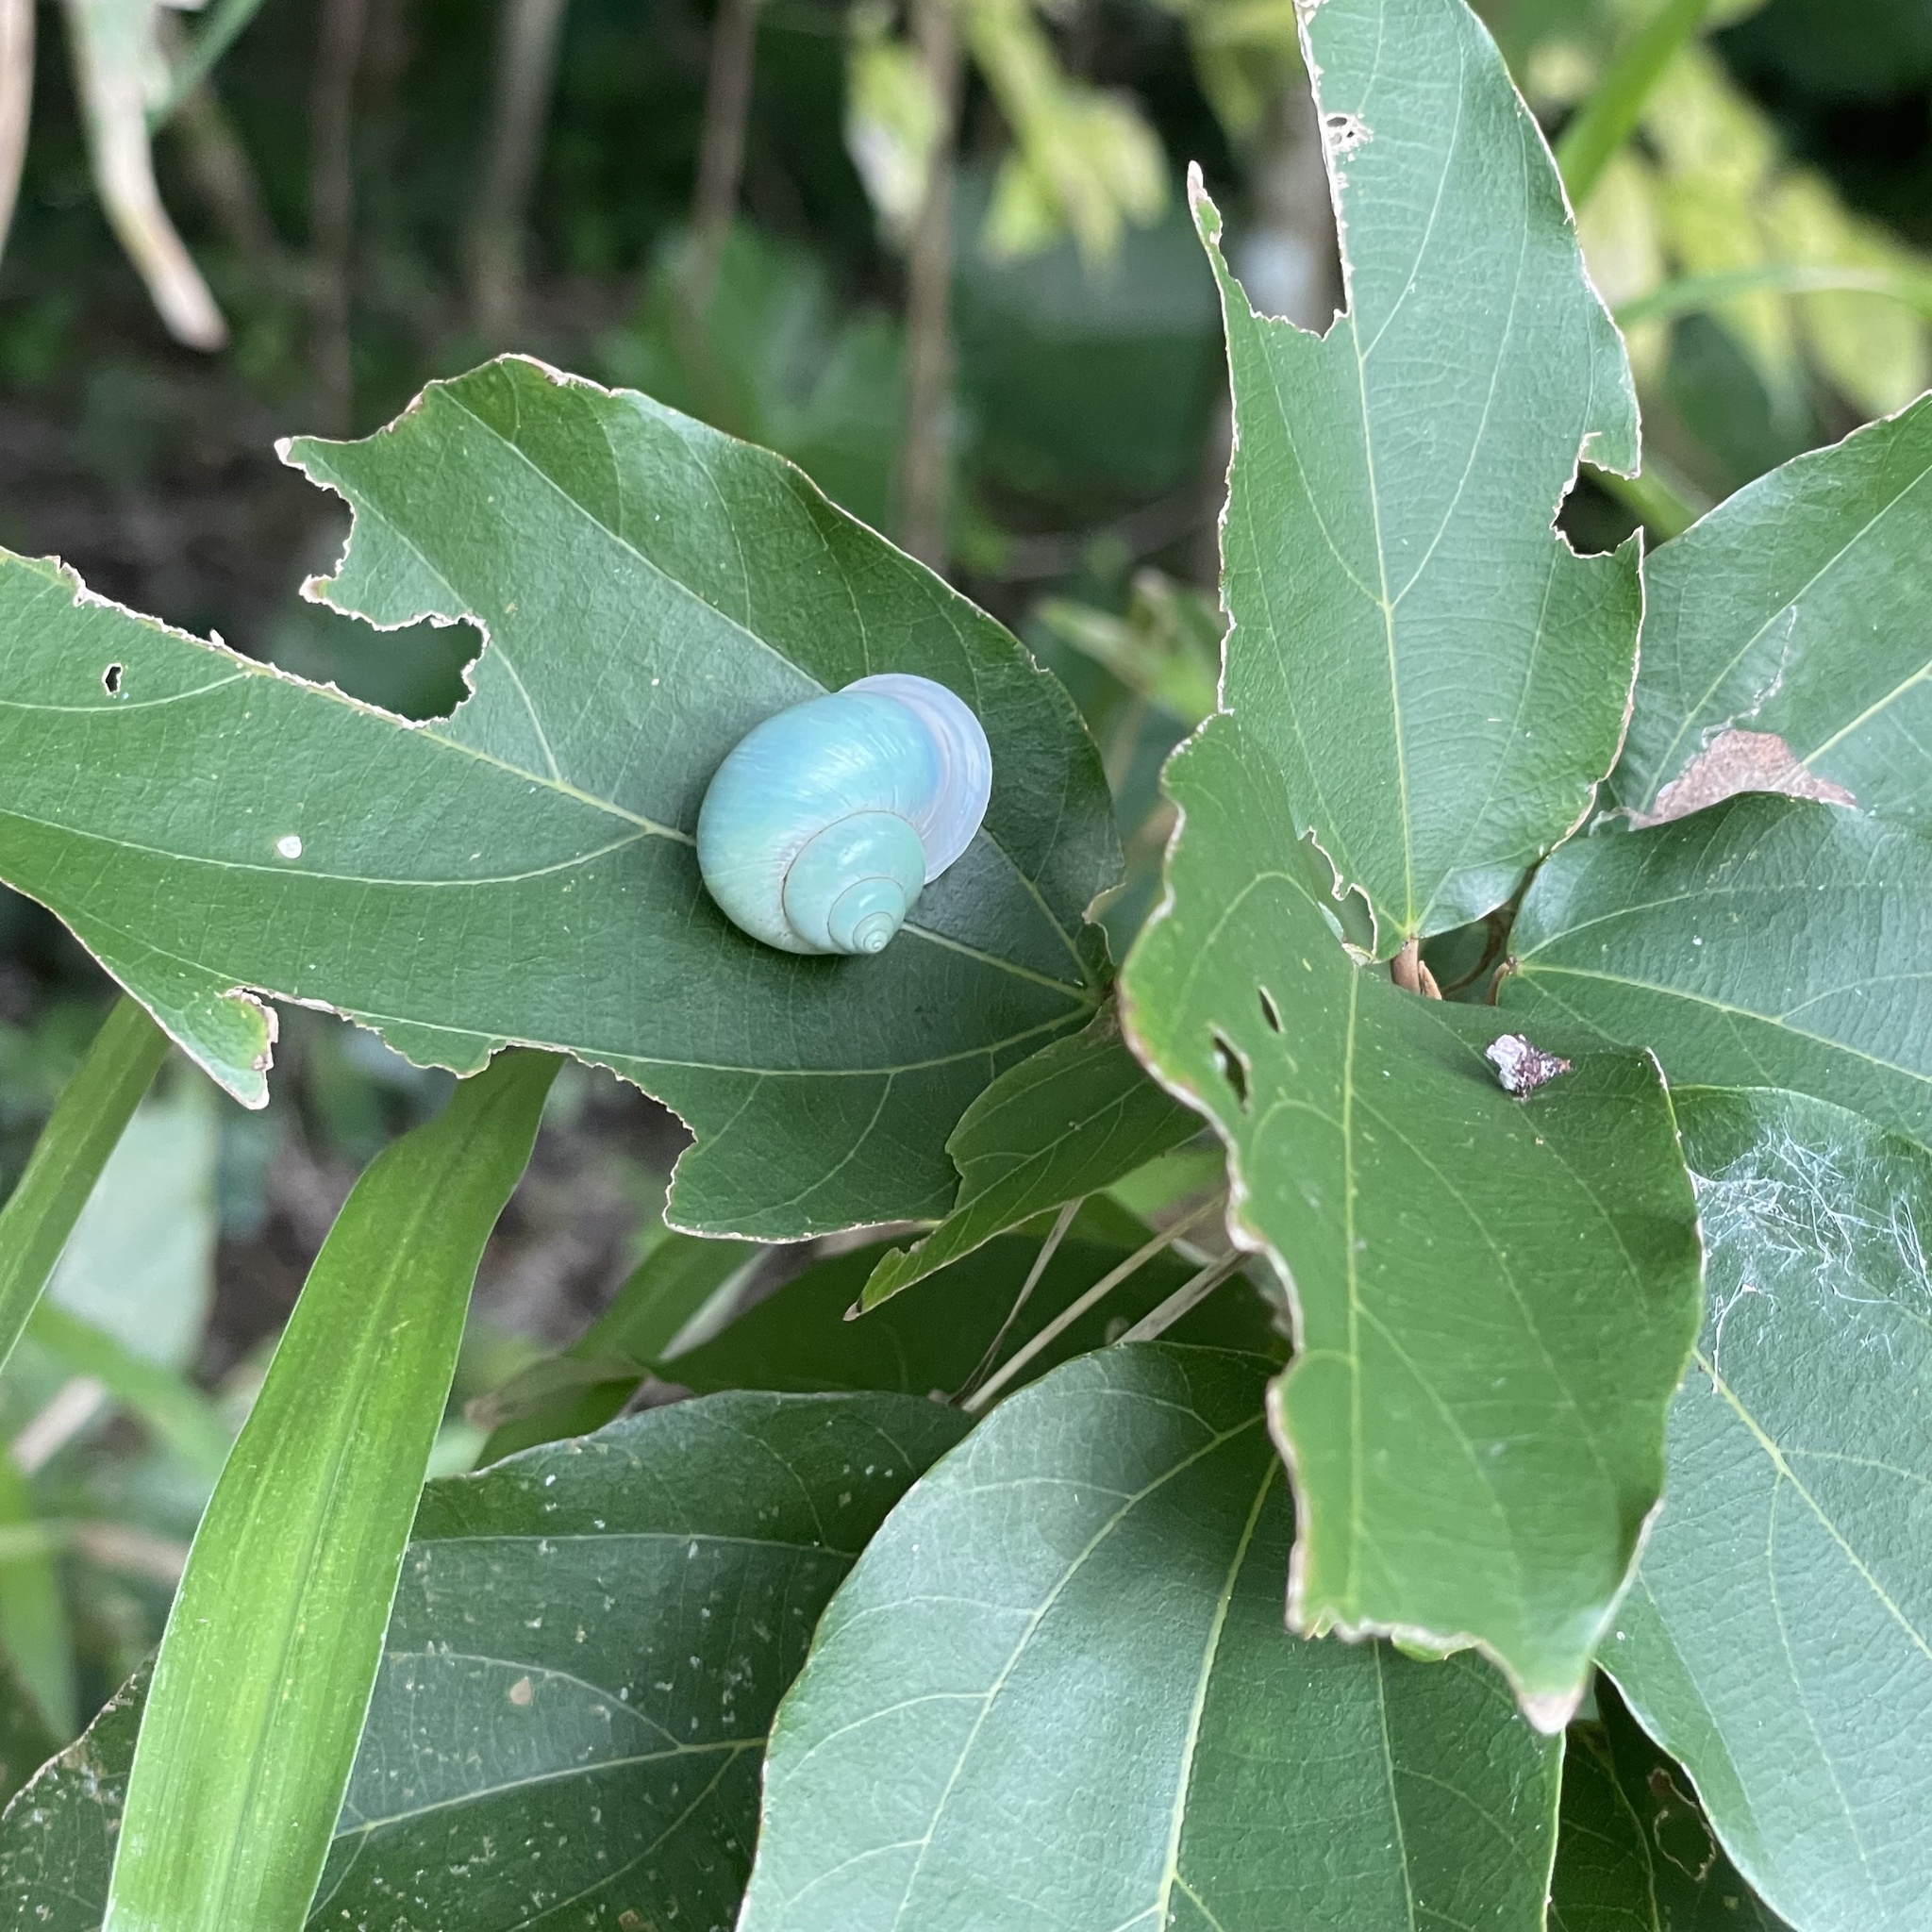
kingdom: Animalia
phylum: Mollusca
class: Gastropoda
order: Architaenioglossa
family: Cyclophoridae
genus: Leptopoma
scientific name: Leptopoma nitidum
